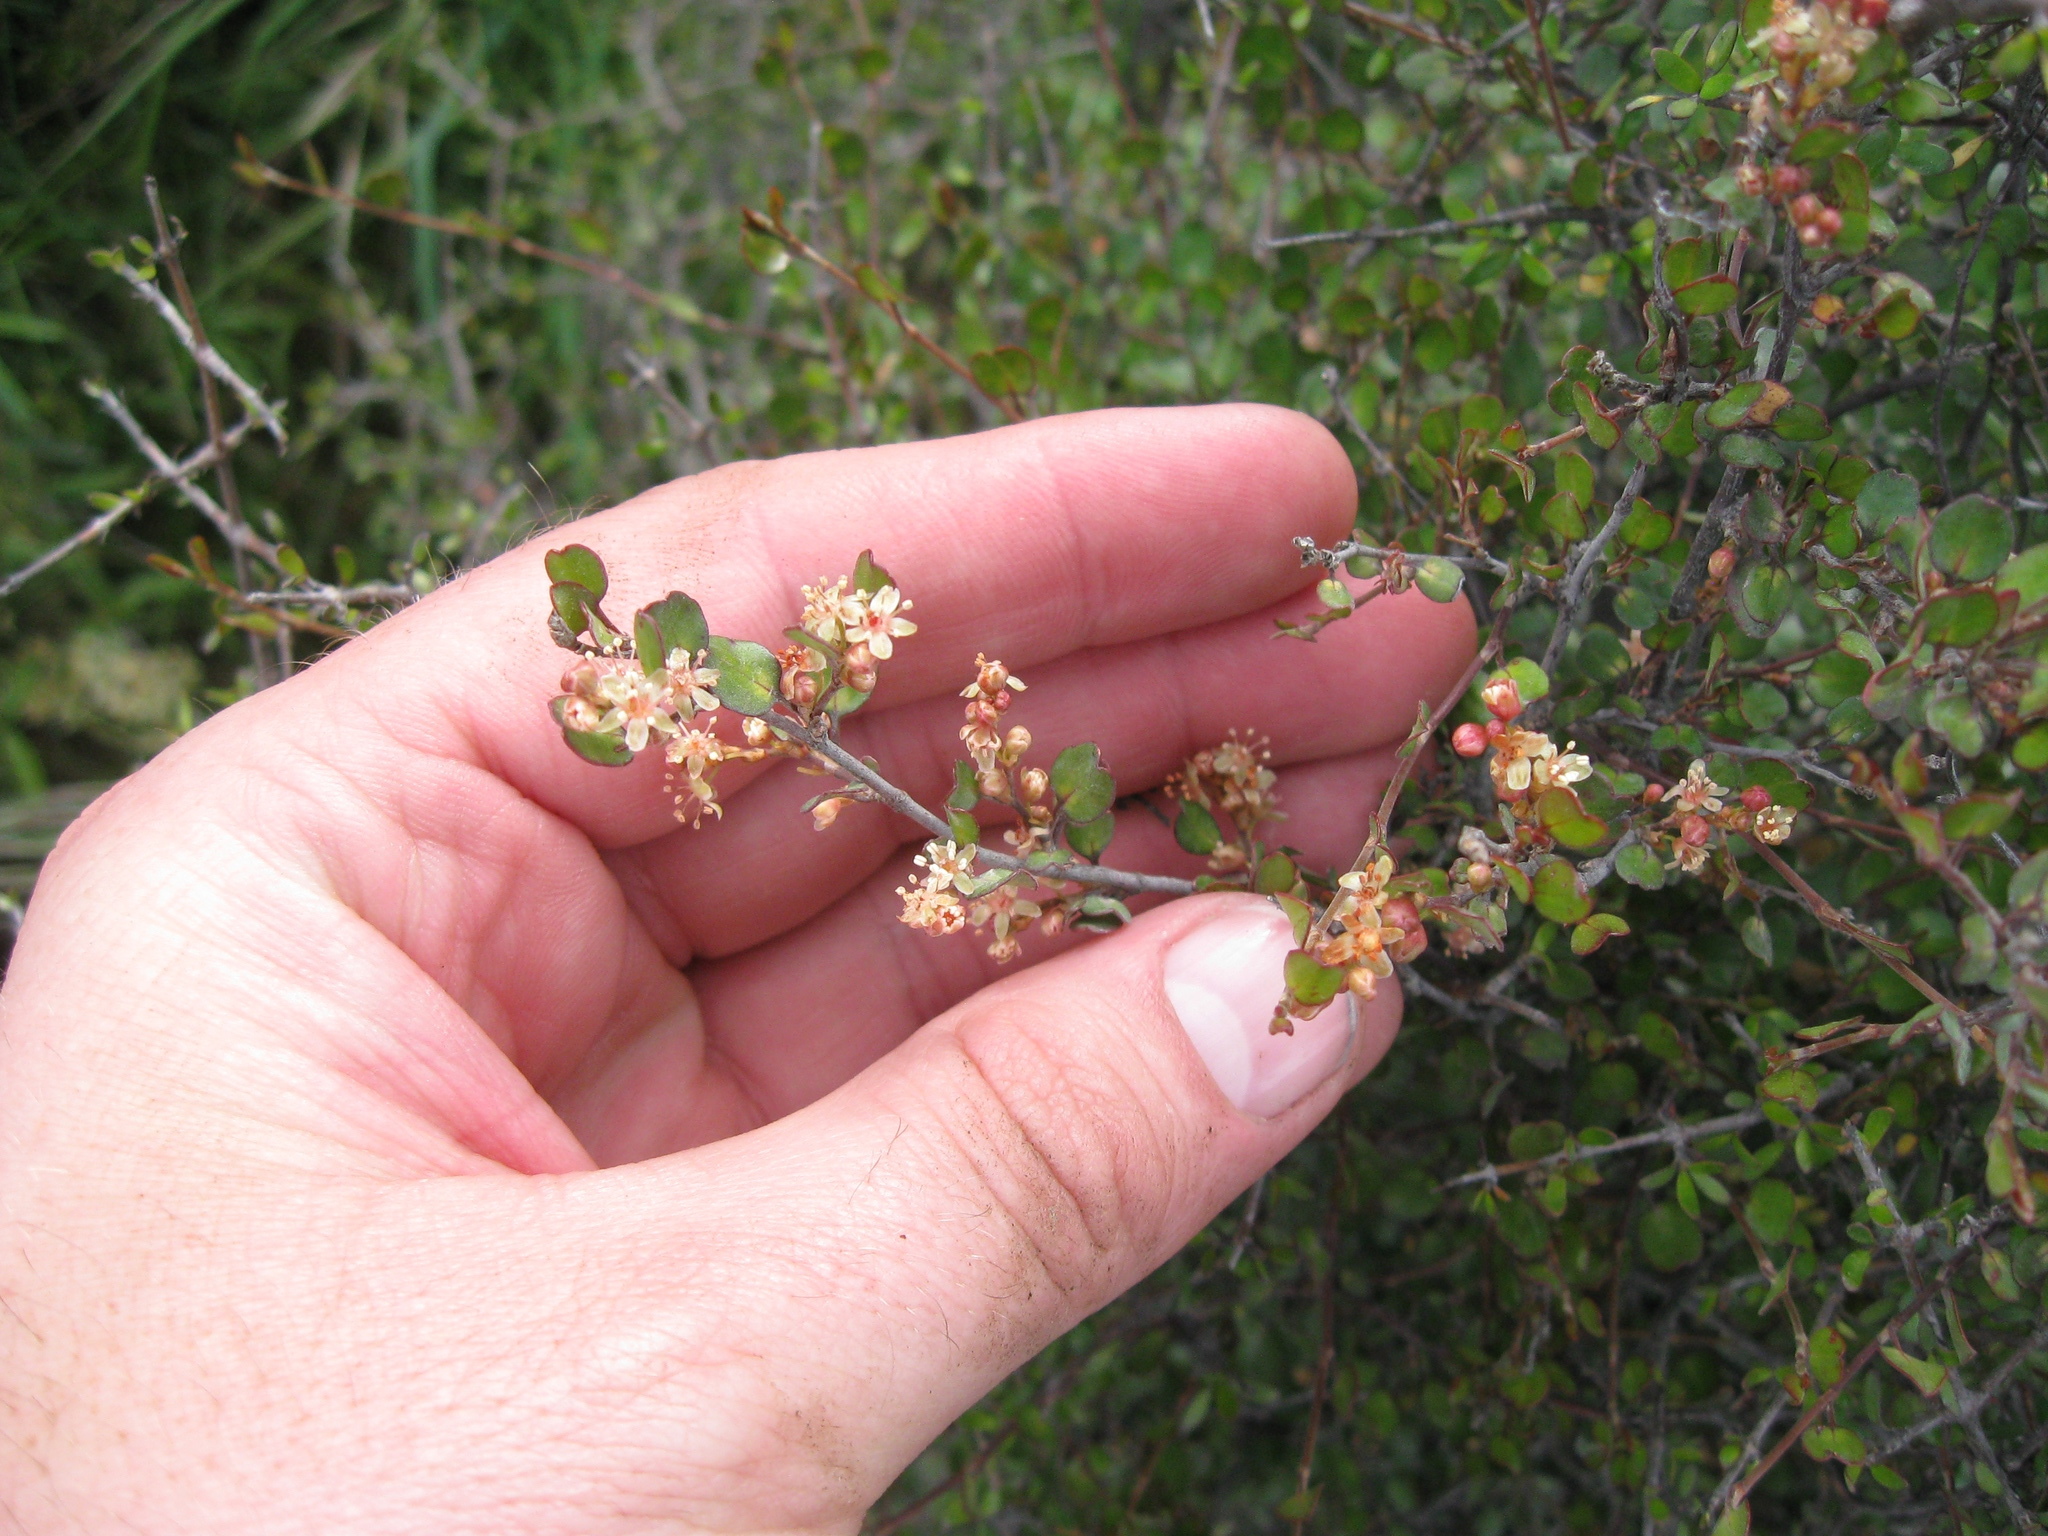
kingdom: Plantae
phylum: Tracheophyta
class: Magnoliopsida
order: Caryophyllales
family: Polygonaceae
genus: Muehlenbeckia
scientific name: Muehlenbeckia complexa
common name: Wireplant
